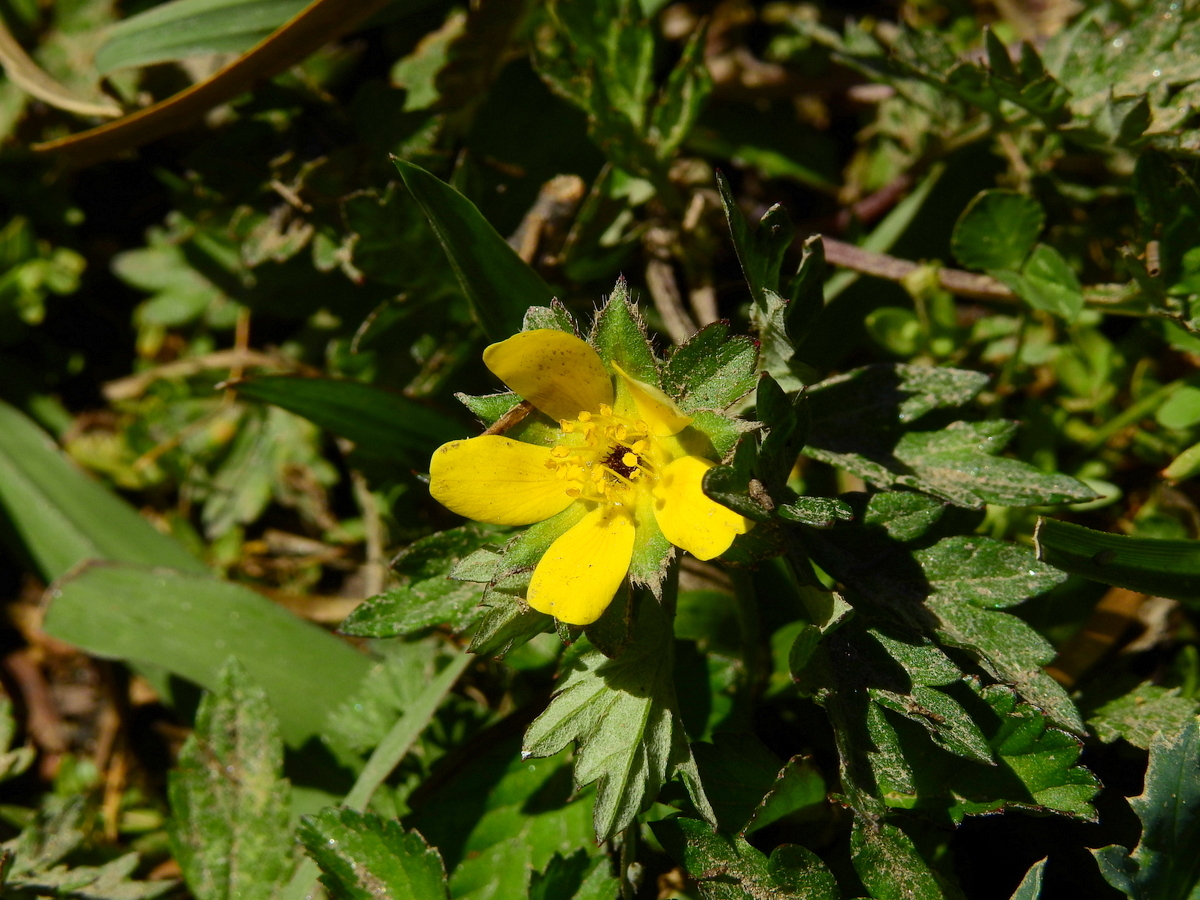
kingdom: Plantae
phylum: Tracheophyta
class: Magnoliopsida
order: Rosales
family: Rosaceae
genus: Potentilla
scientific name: Potentilla indica
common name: Yellow-flowered strawberry
